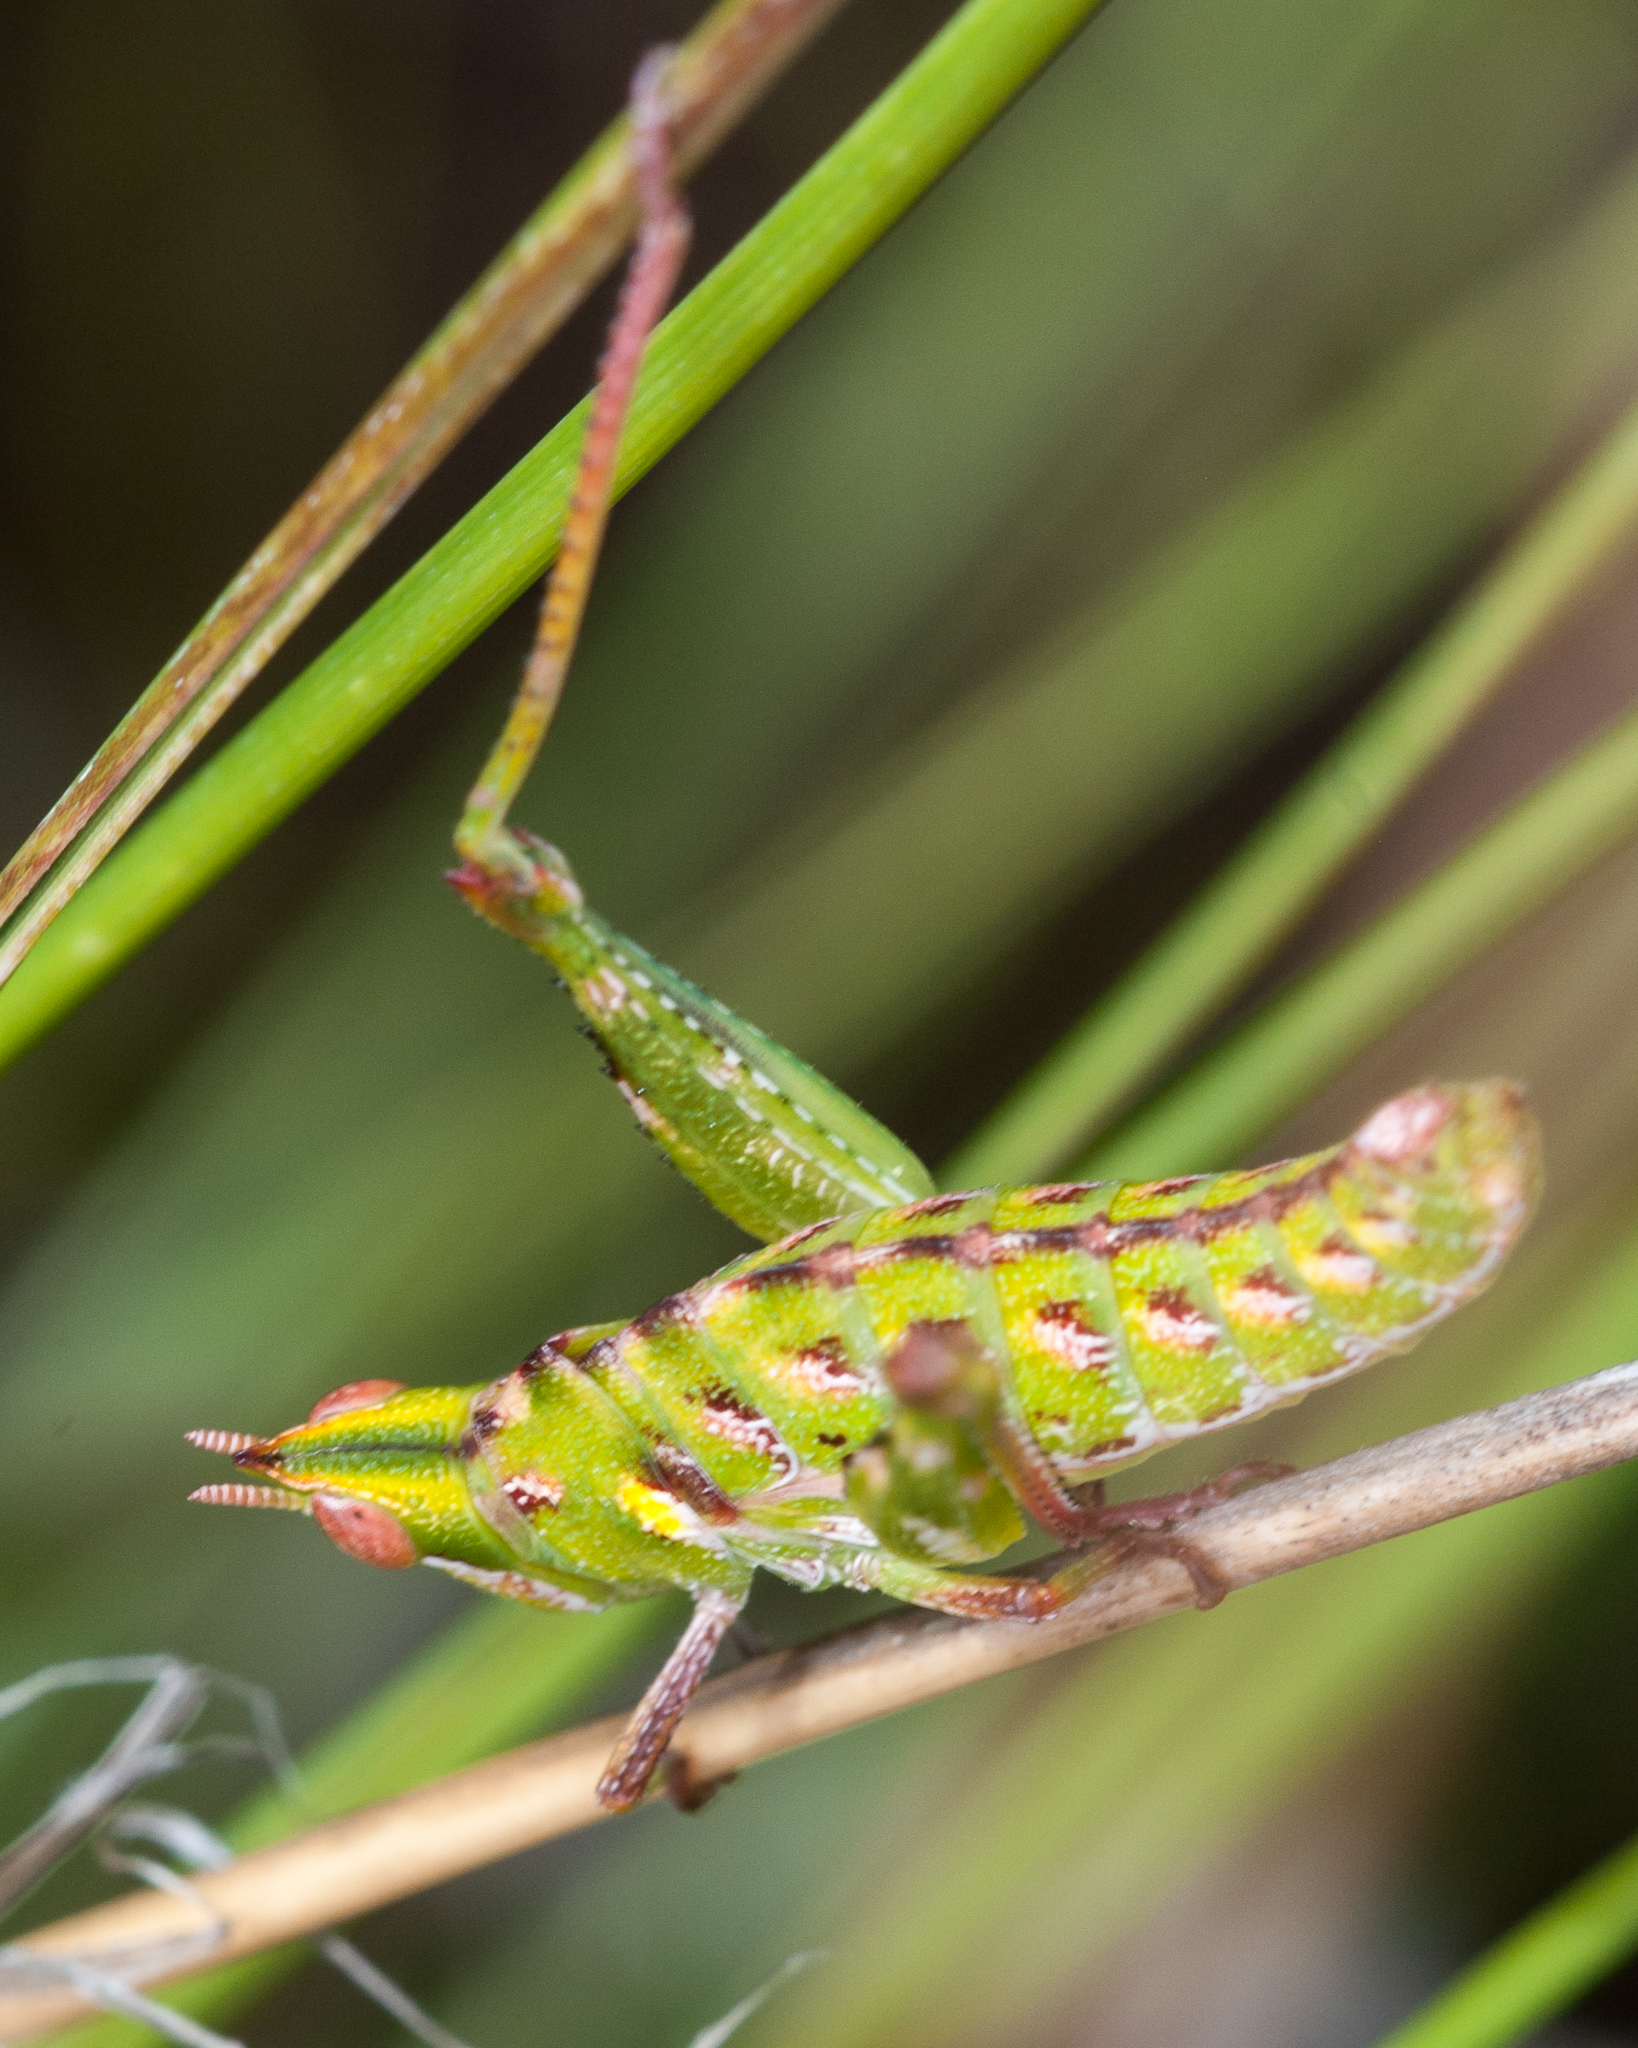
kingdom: Animalia
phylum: Arthropoda
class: Insecta
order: Orthoptera
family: Thericleidae
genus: Thericlesiella
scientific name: Thericlesiella meridionalis
